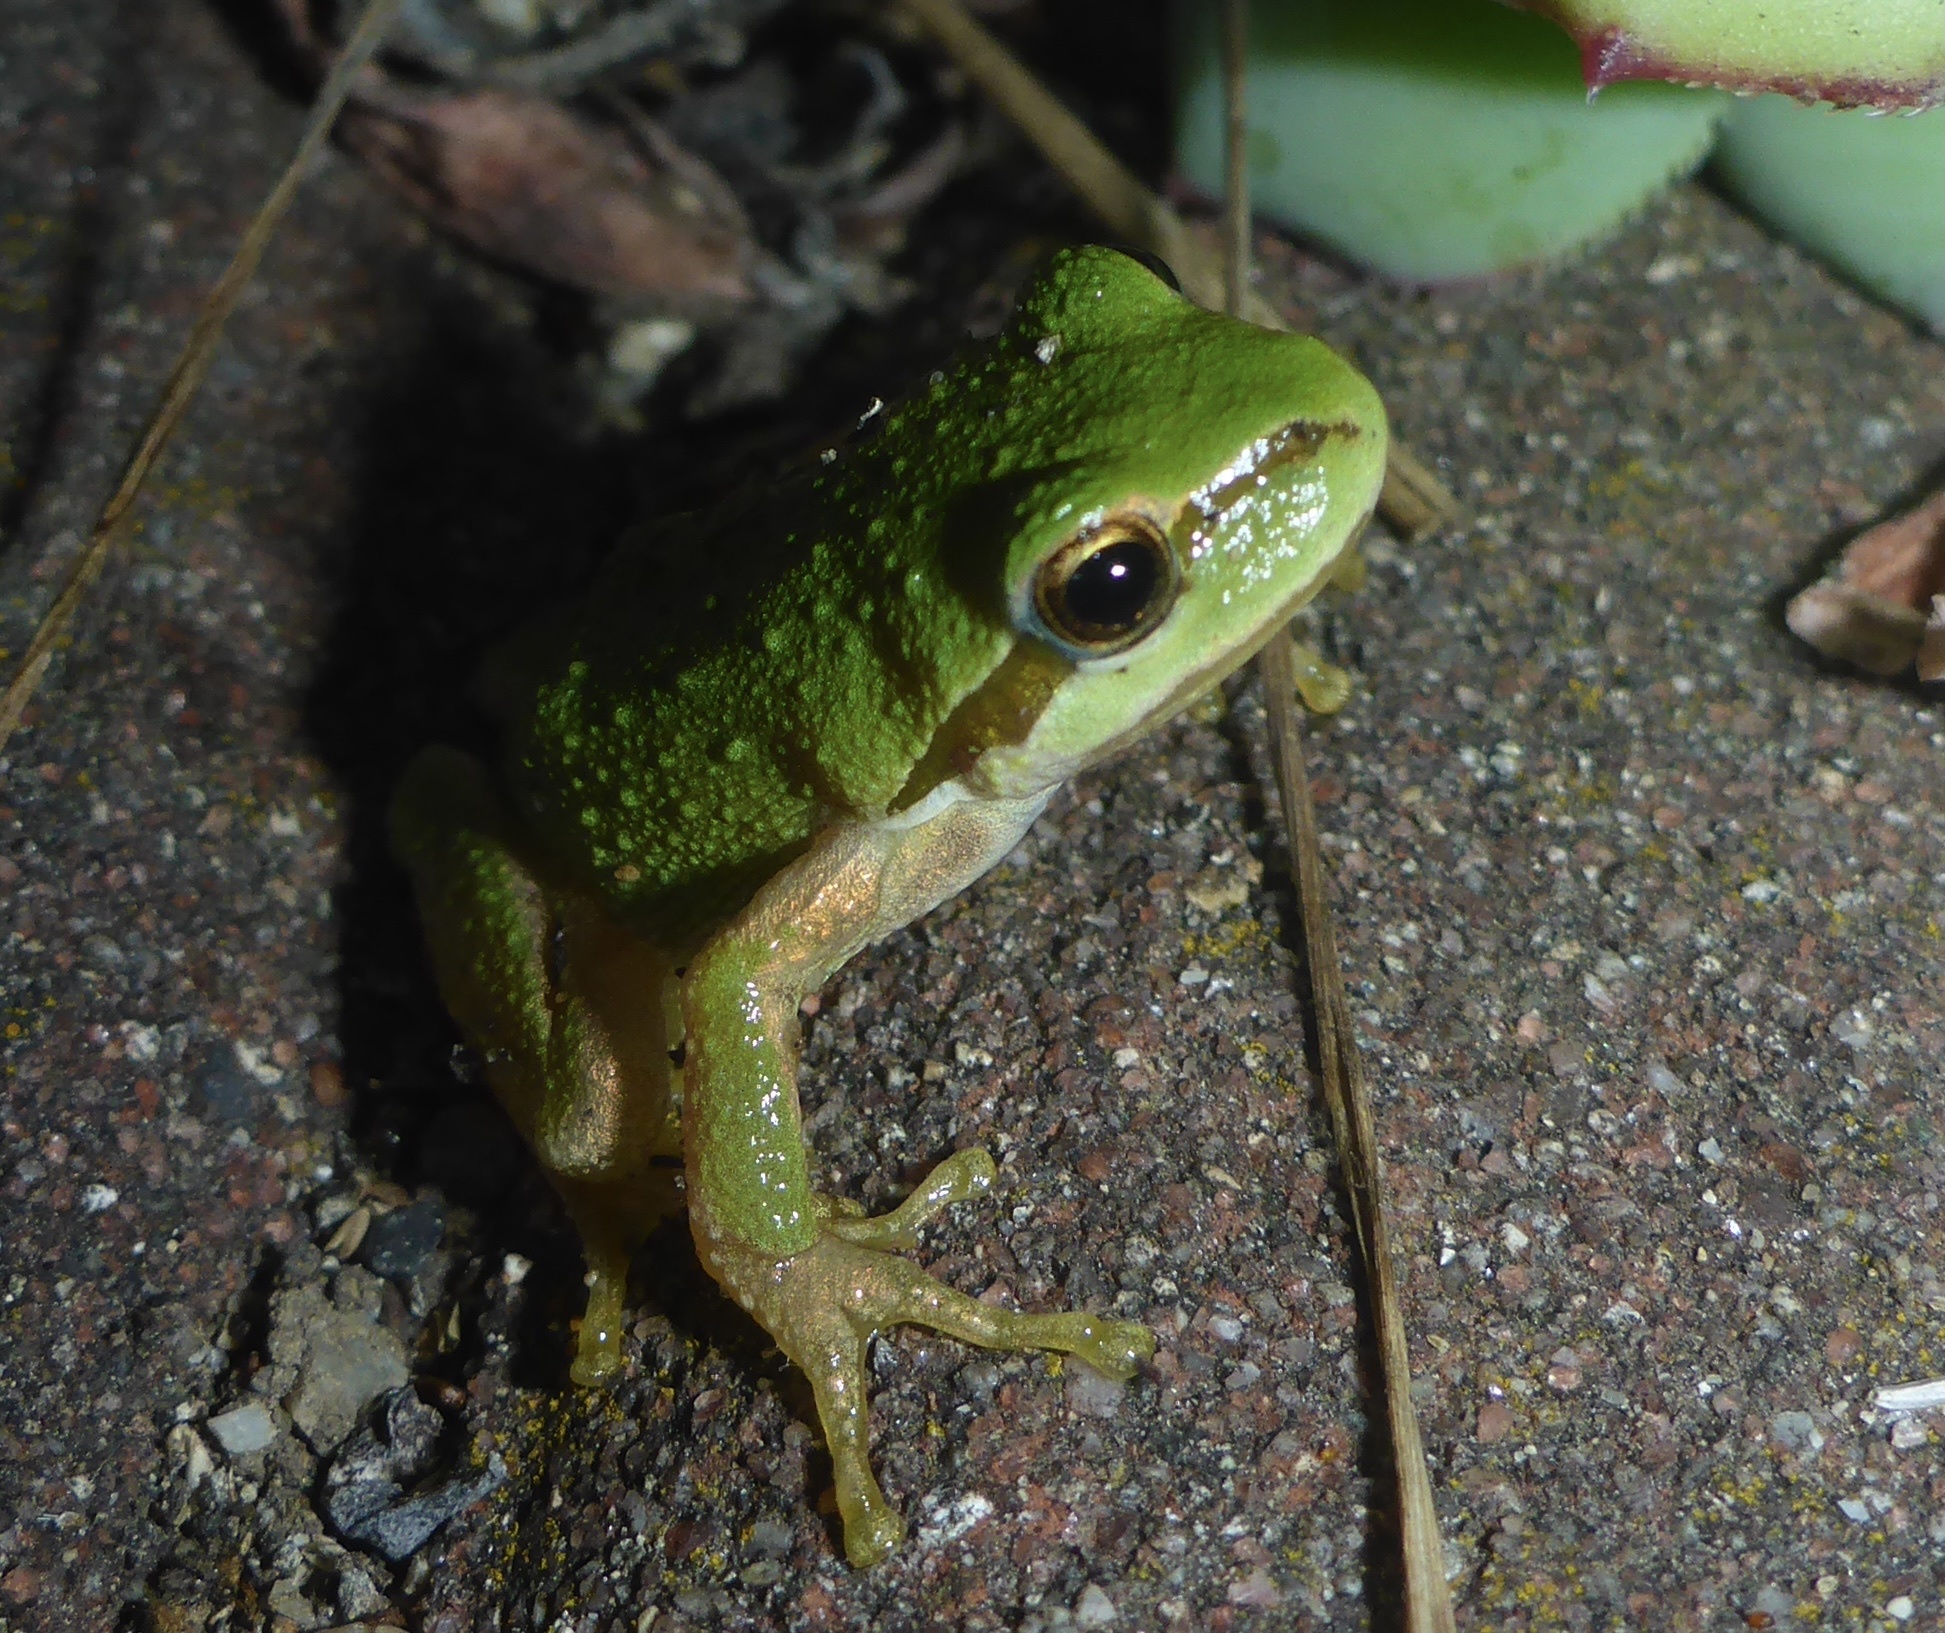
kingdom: Animalia
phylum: Chordata
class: Amphibia
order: Anura
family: Hylidae
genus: Pseudacris
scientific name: Pseudacris regilla
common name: Pacific chorus frog
